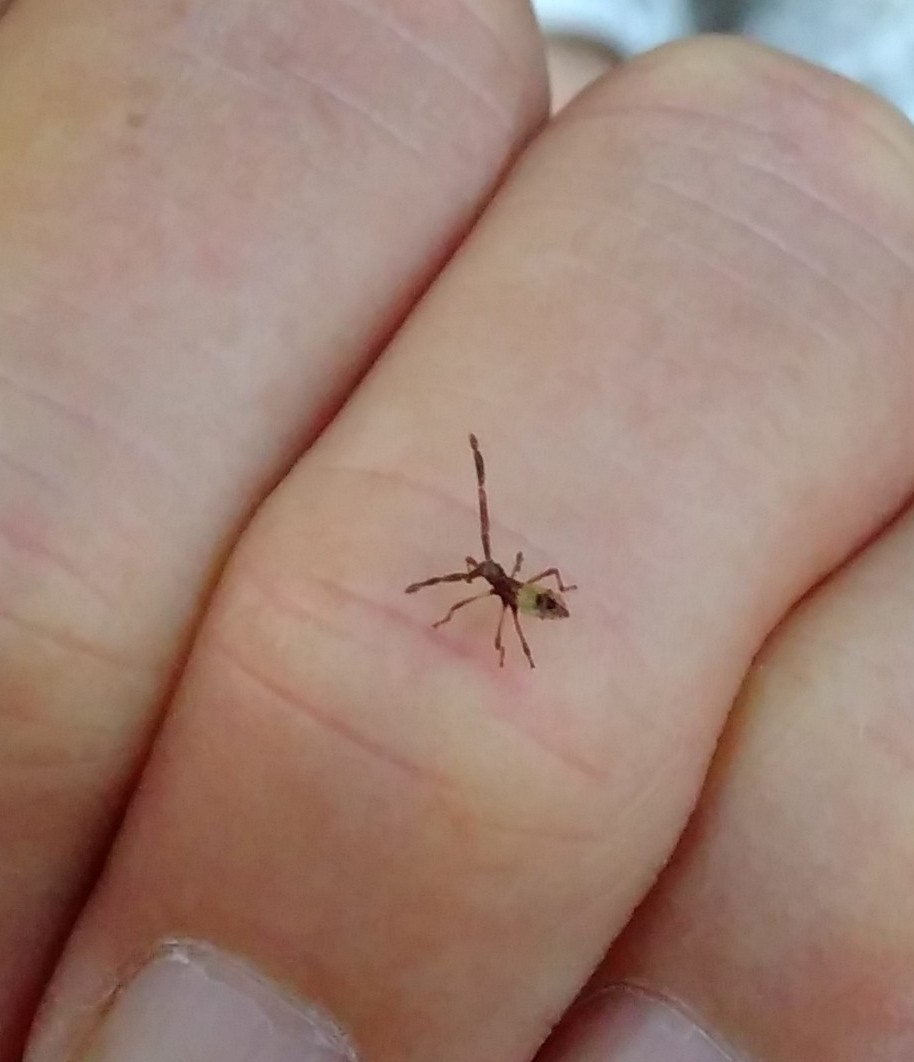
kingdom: Animalia
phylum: Arthropoda
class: Insecta
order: Hemiptera
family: Coreidae
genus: Gonocerus
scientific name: Gonocerus acuteangulatus
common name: Box bug
